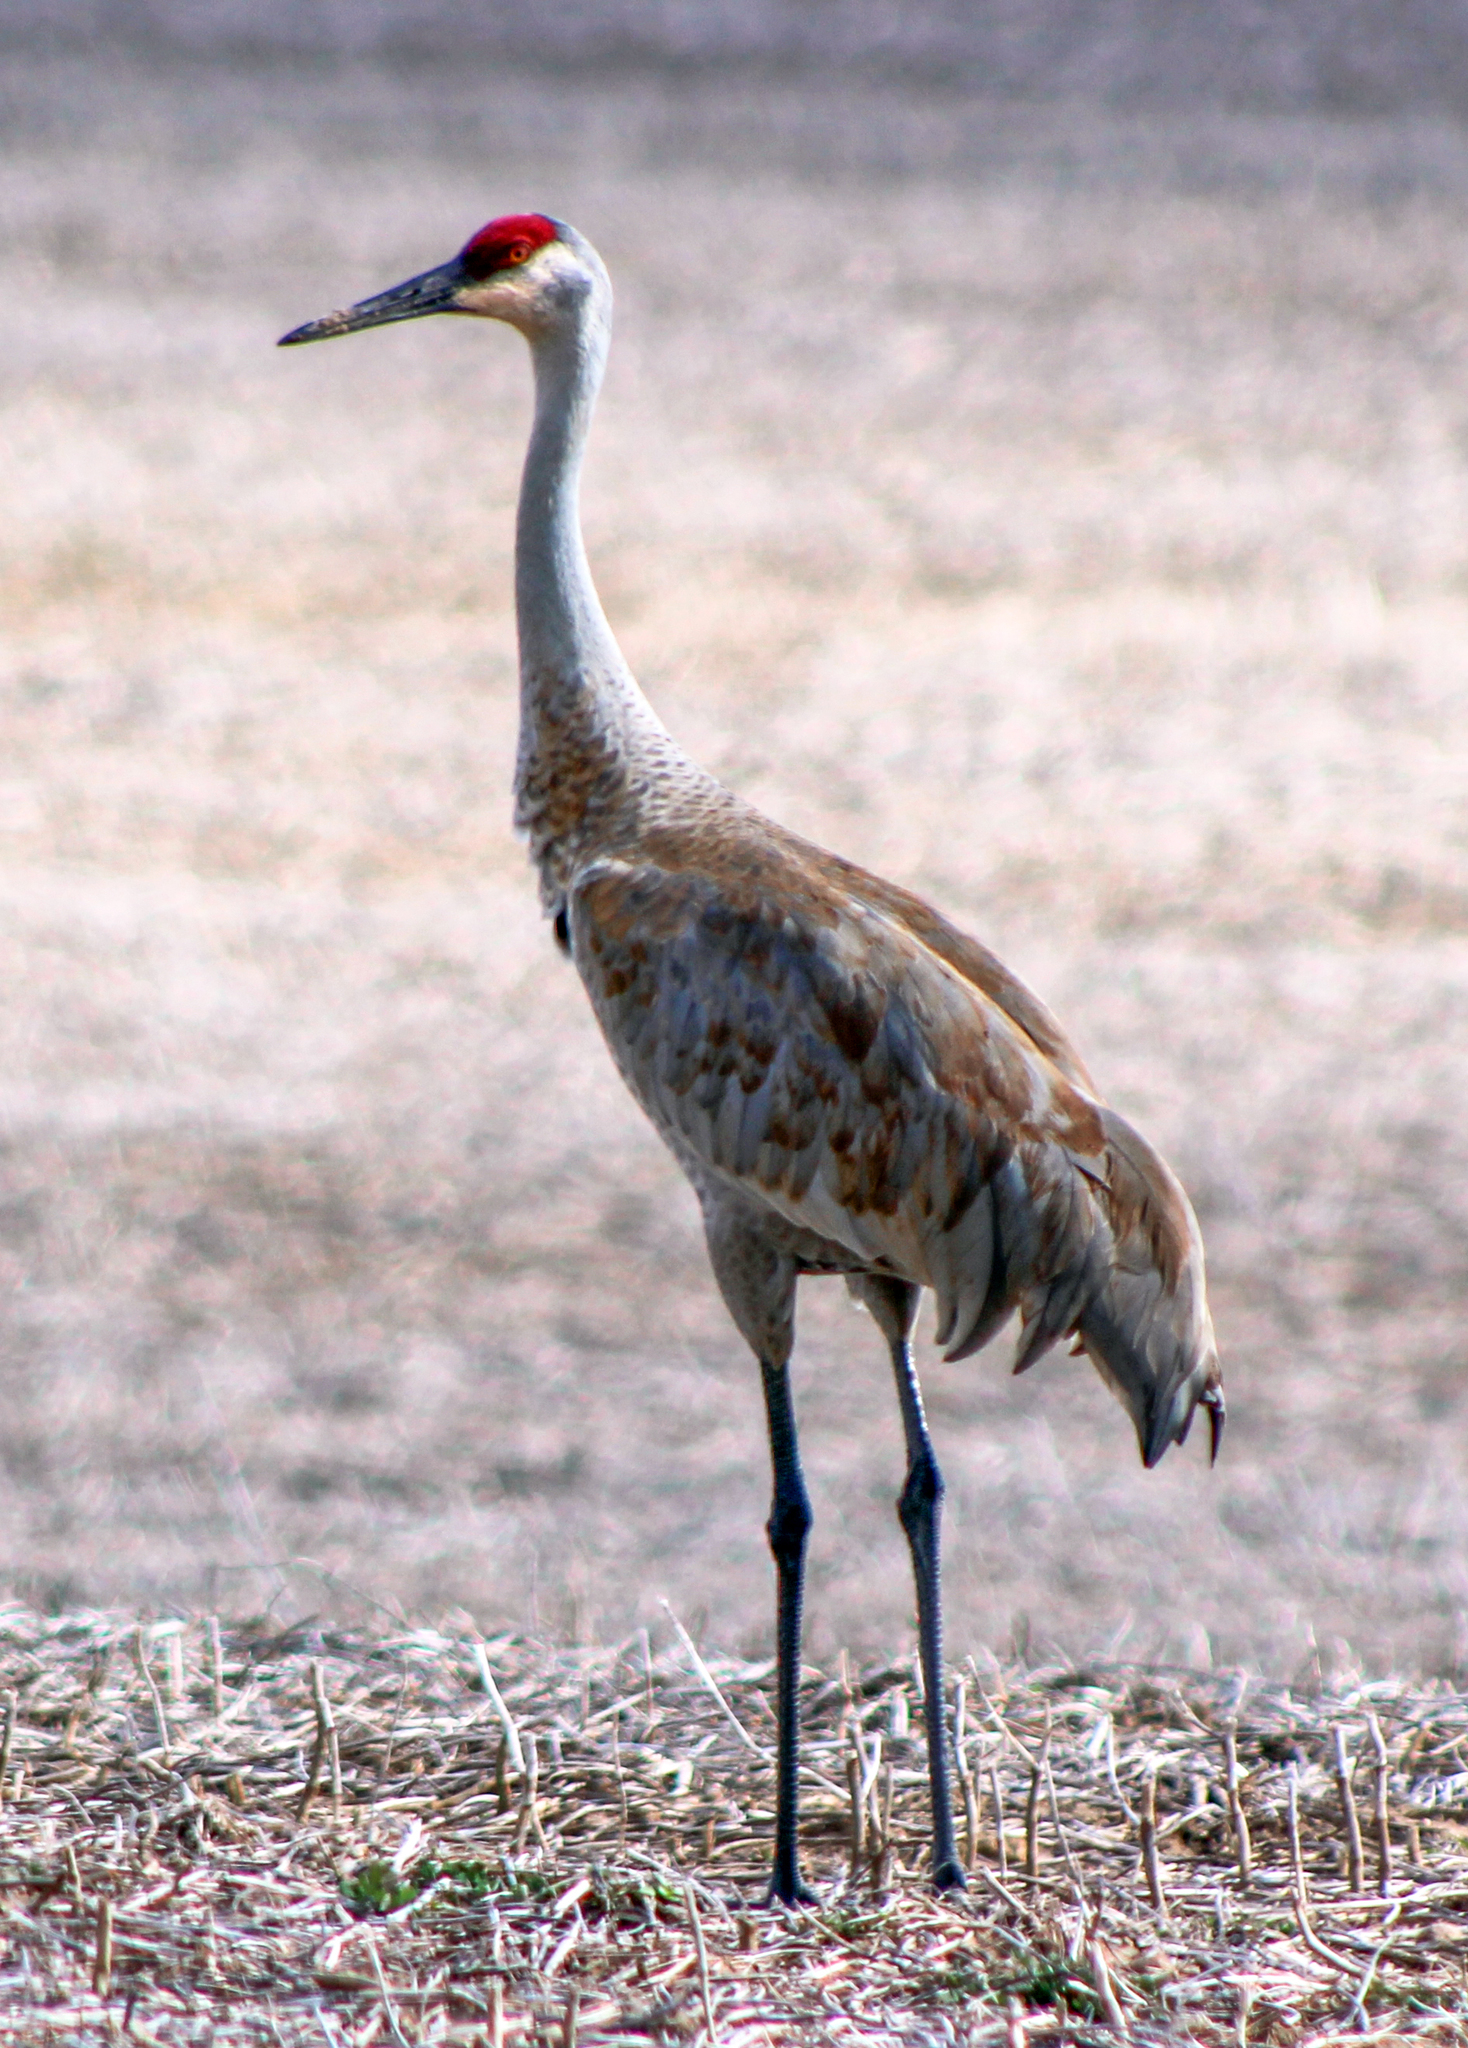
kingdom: Animalia
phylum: Chordata
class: Aves
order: Gruiformes
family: Gruidae
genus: Grus
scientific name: Grus canadensis
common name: Sandhill crane
